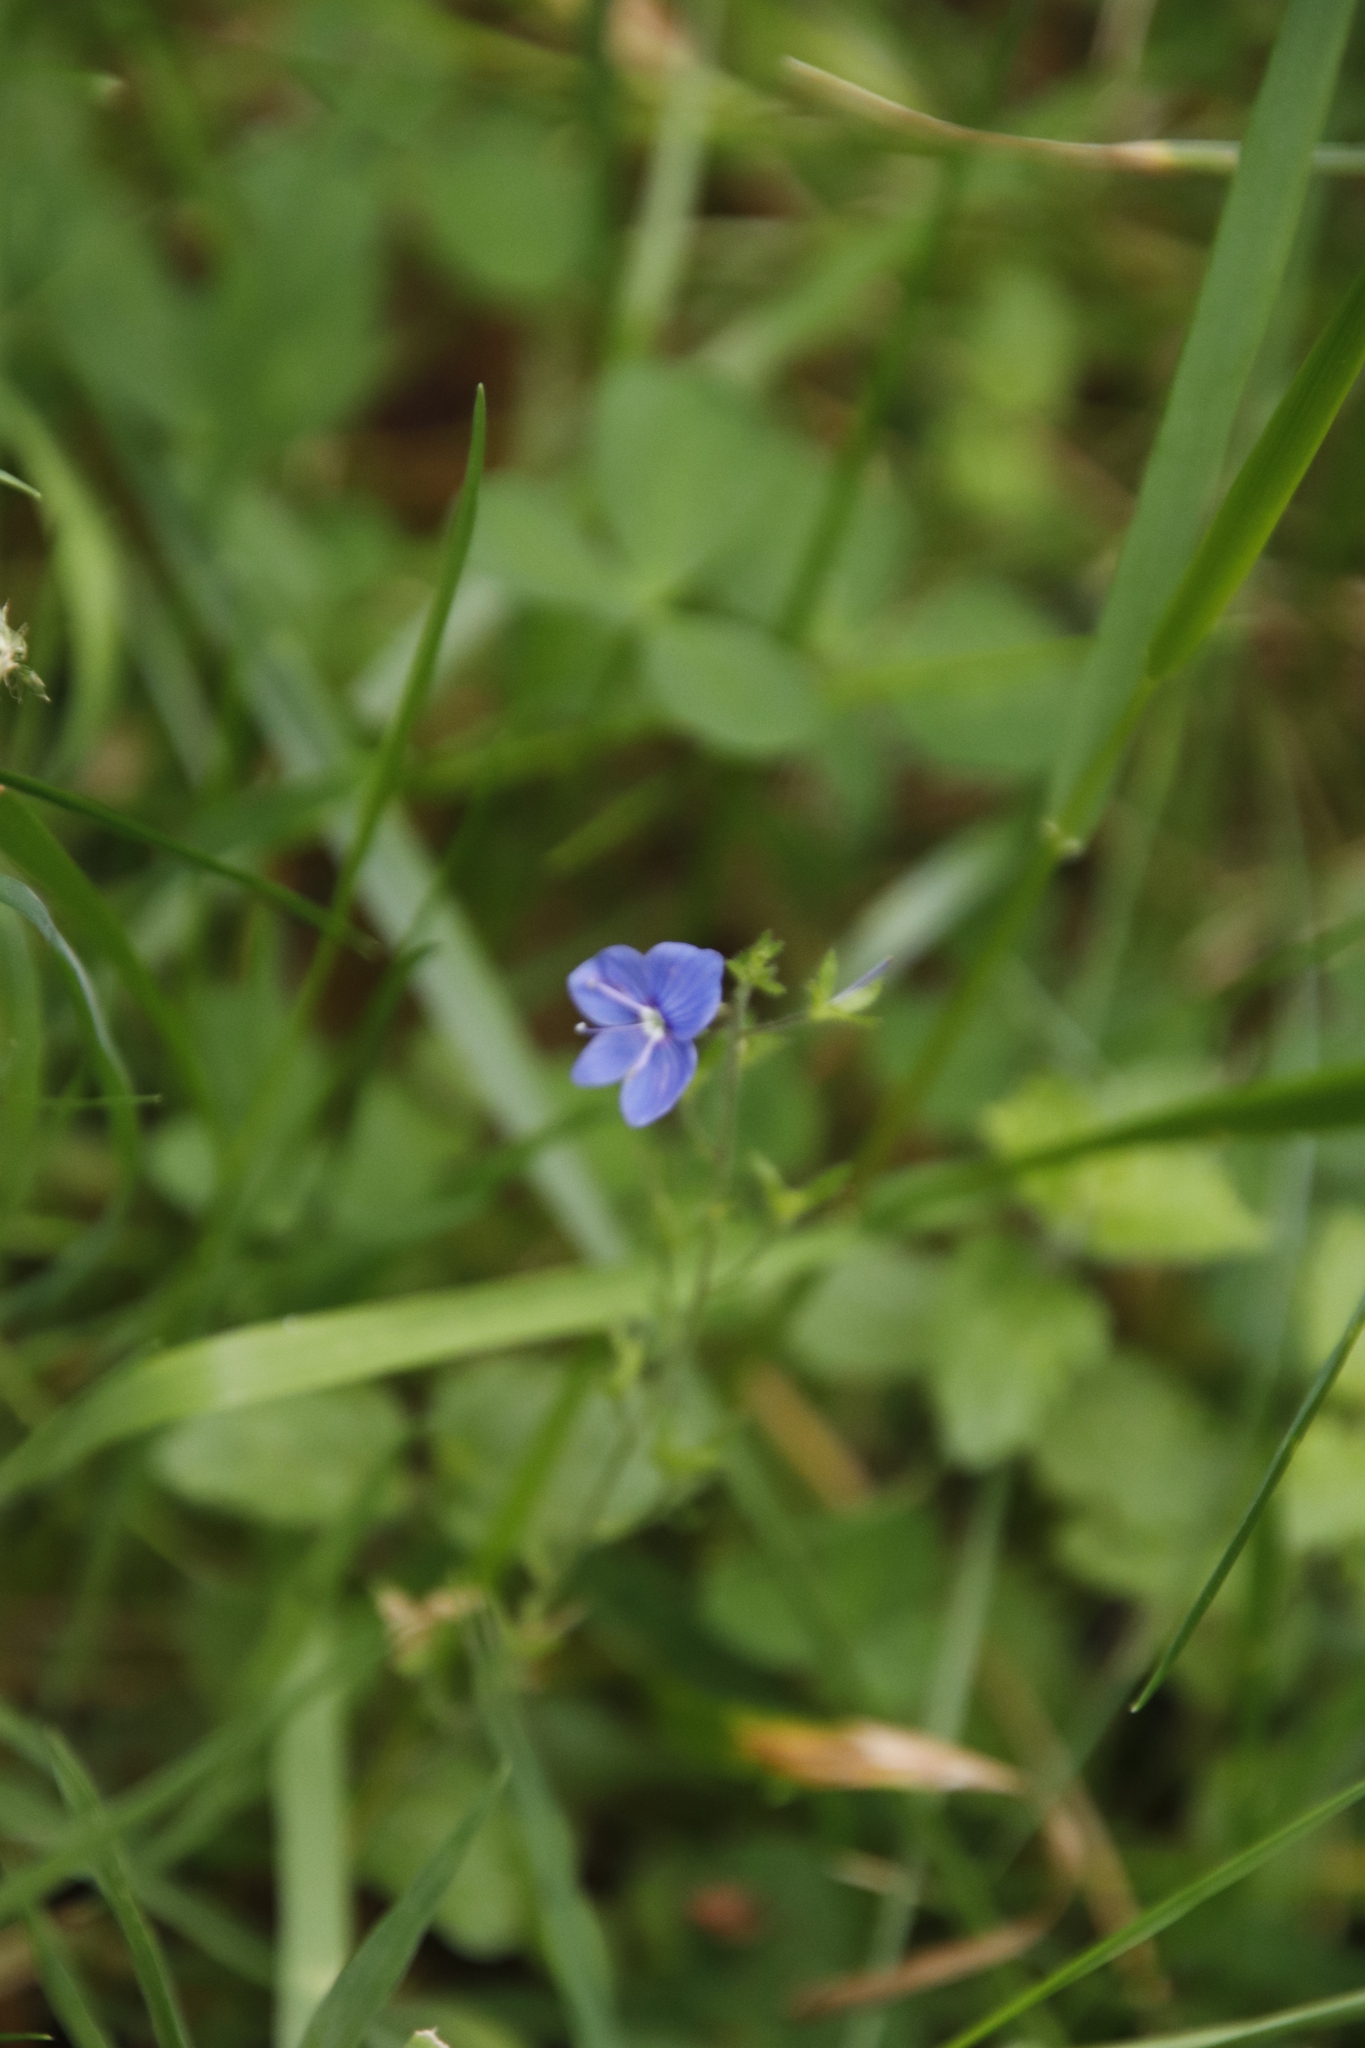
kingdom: Plantae
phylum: Tracheophyta
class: Magnoliopsida
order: Lamiales
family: Plantaginaceae
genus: Veronica
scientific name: Veronica chamaedrys
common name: Germander speedwell
